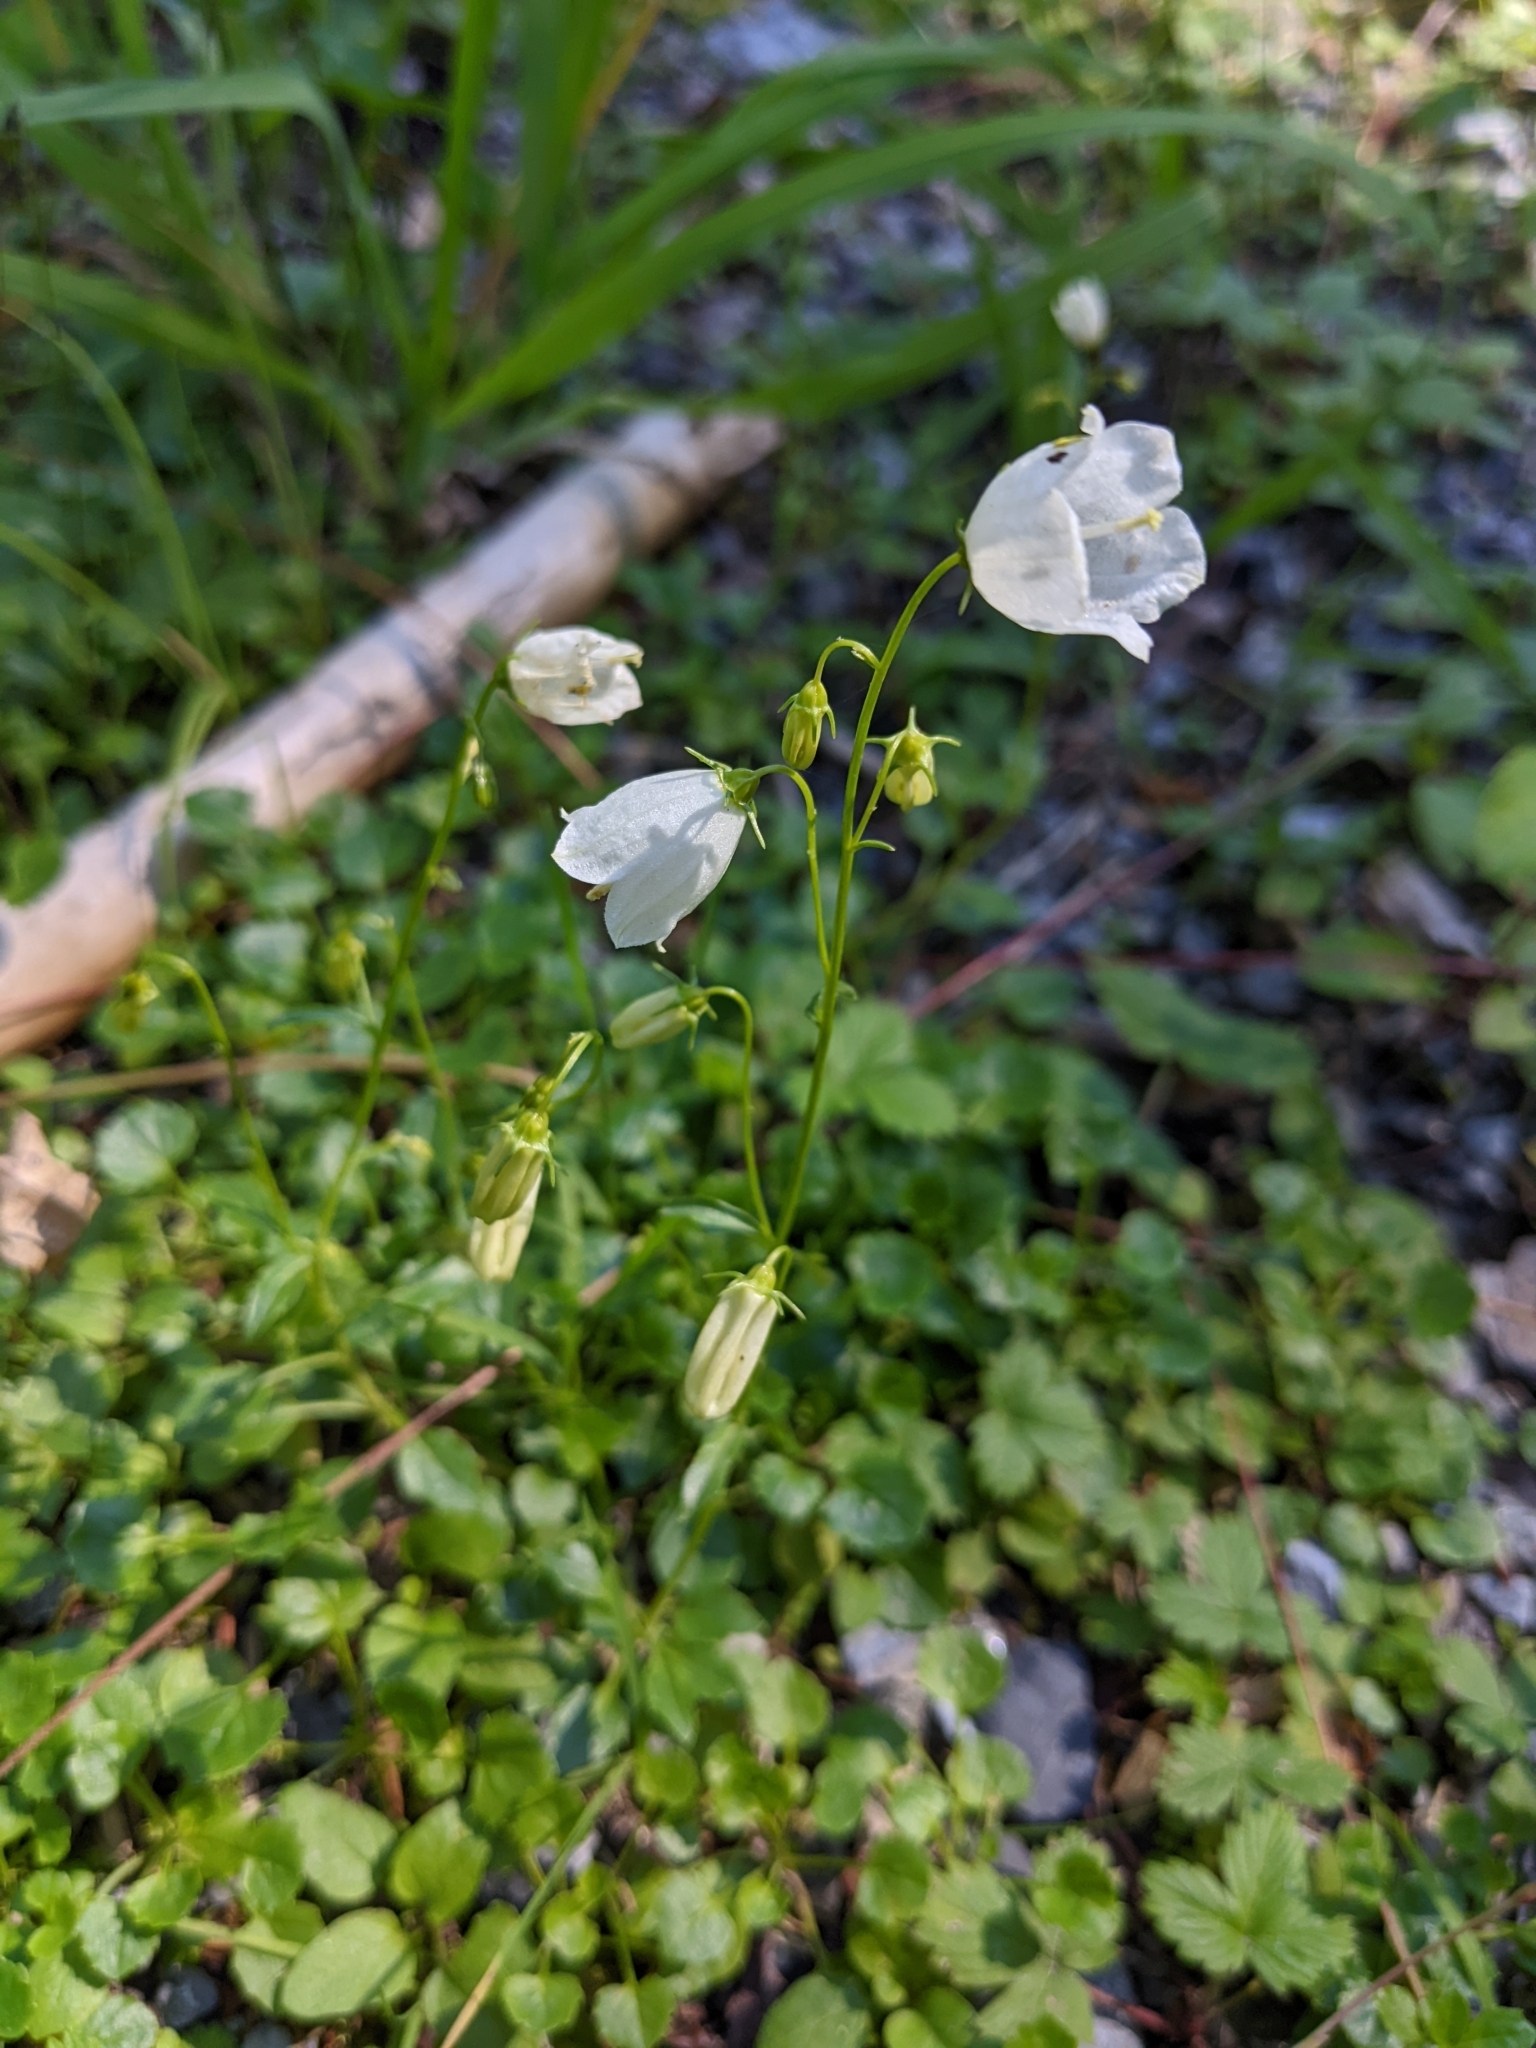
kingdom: Plantae
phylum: Tracheophyta
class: Magnoliopsida
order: Asterales
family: Campanulaceae
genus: Campanula
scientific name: Campanula cochleariifolia
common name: Fairies'-thimbles
